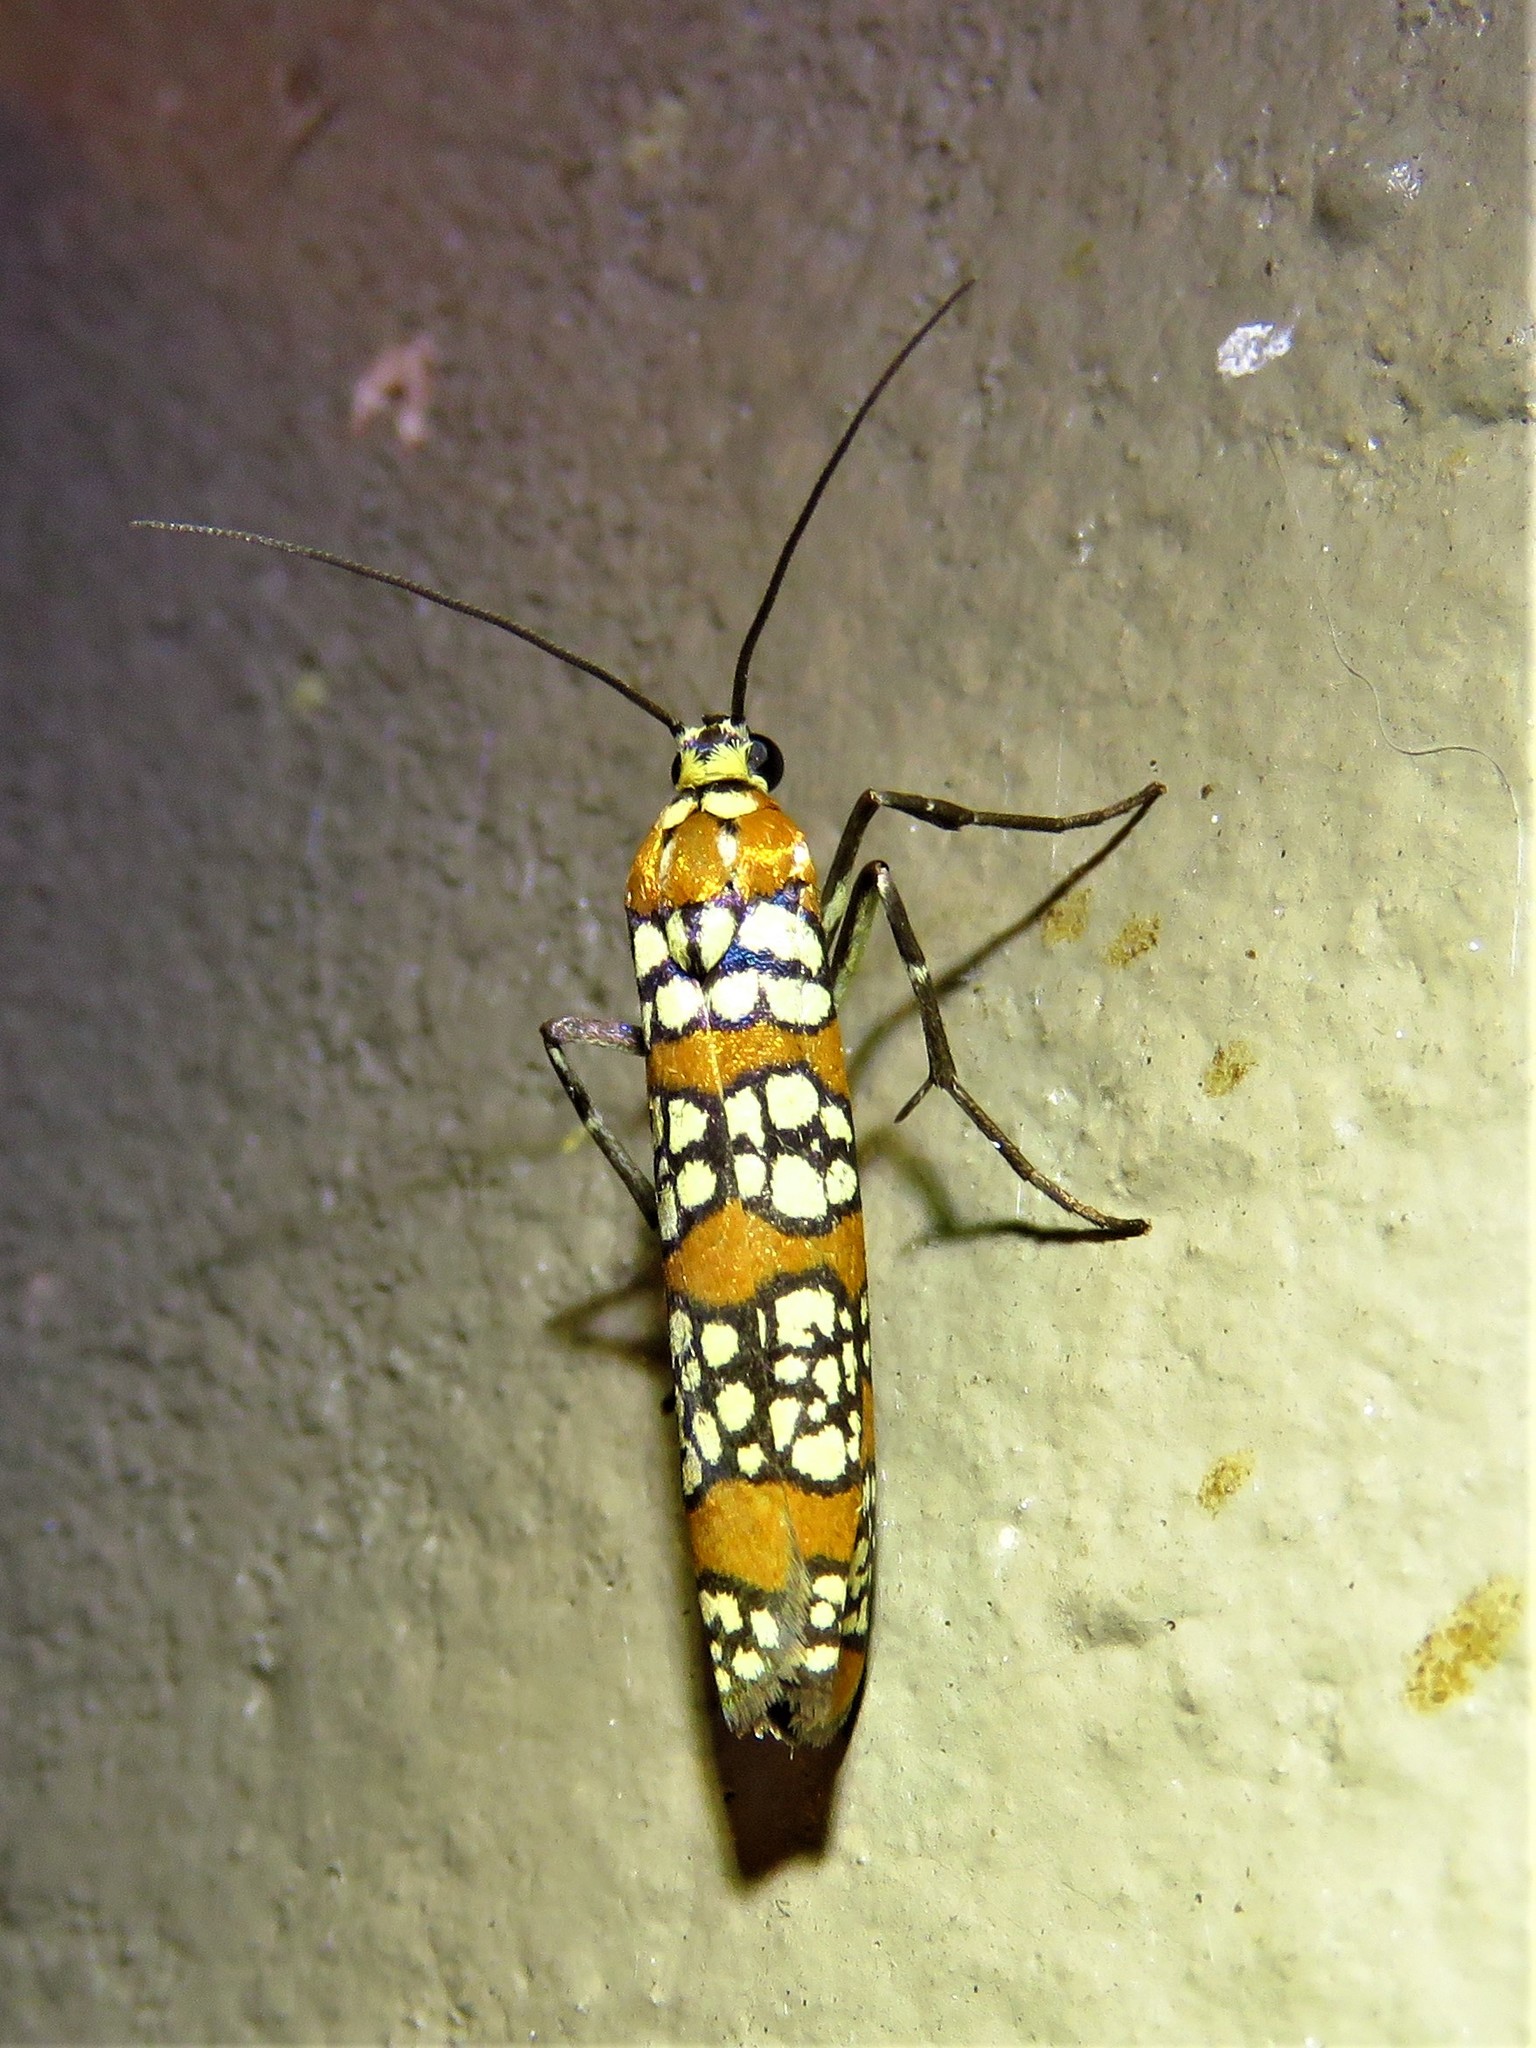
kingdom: Animalia
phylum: Arthropoda
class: Insecta
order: Lepidoptera
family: Attevidae
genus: Atteva
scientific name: Atteva punctella
